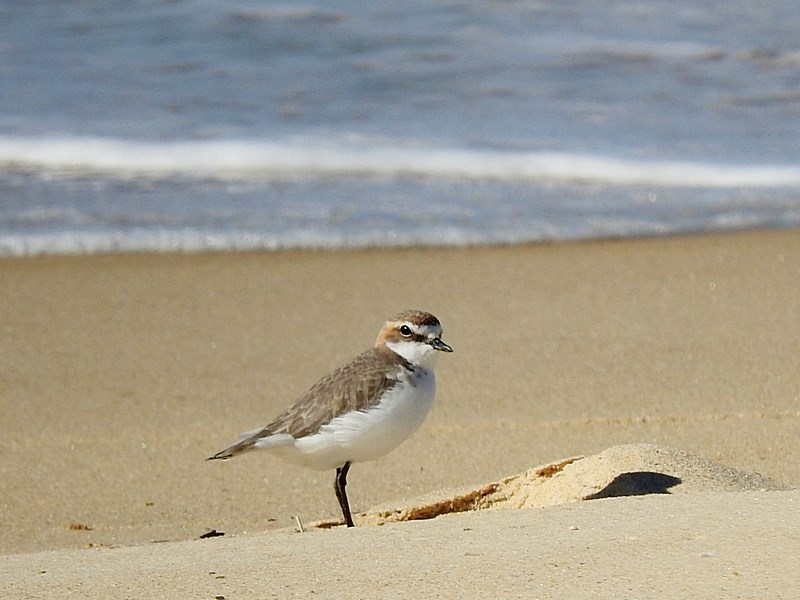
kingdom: Animalia
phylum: Chordata
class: Aves
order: Charadriiformes
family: Charadriidae
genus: Anarhynchus
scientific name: Anarhynchus
